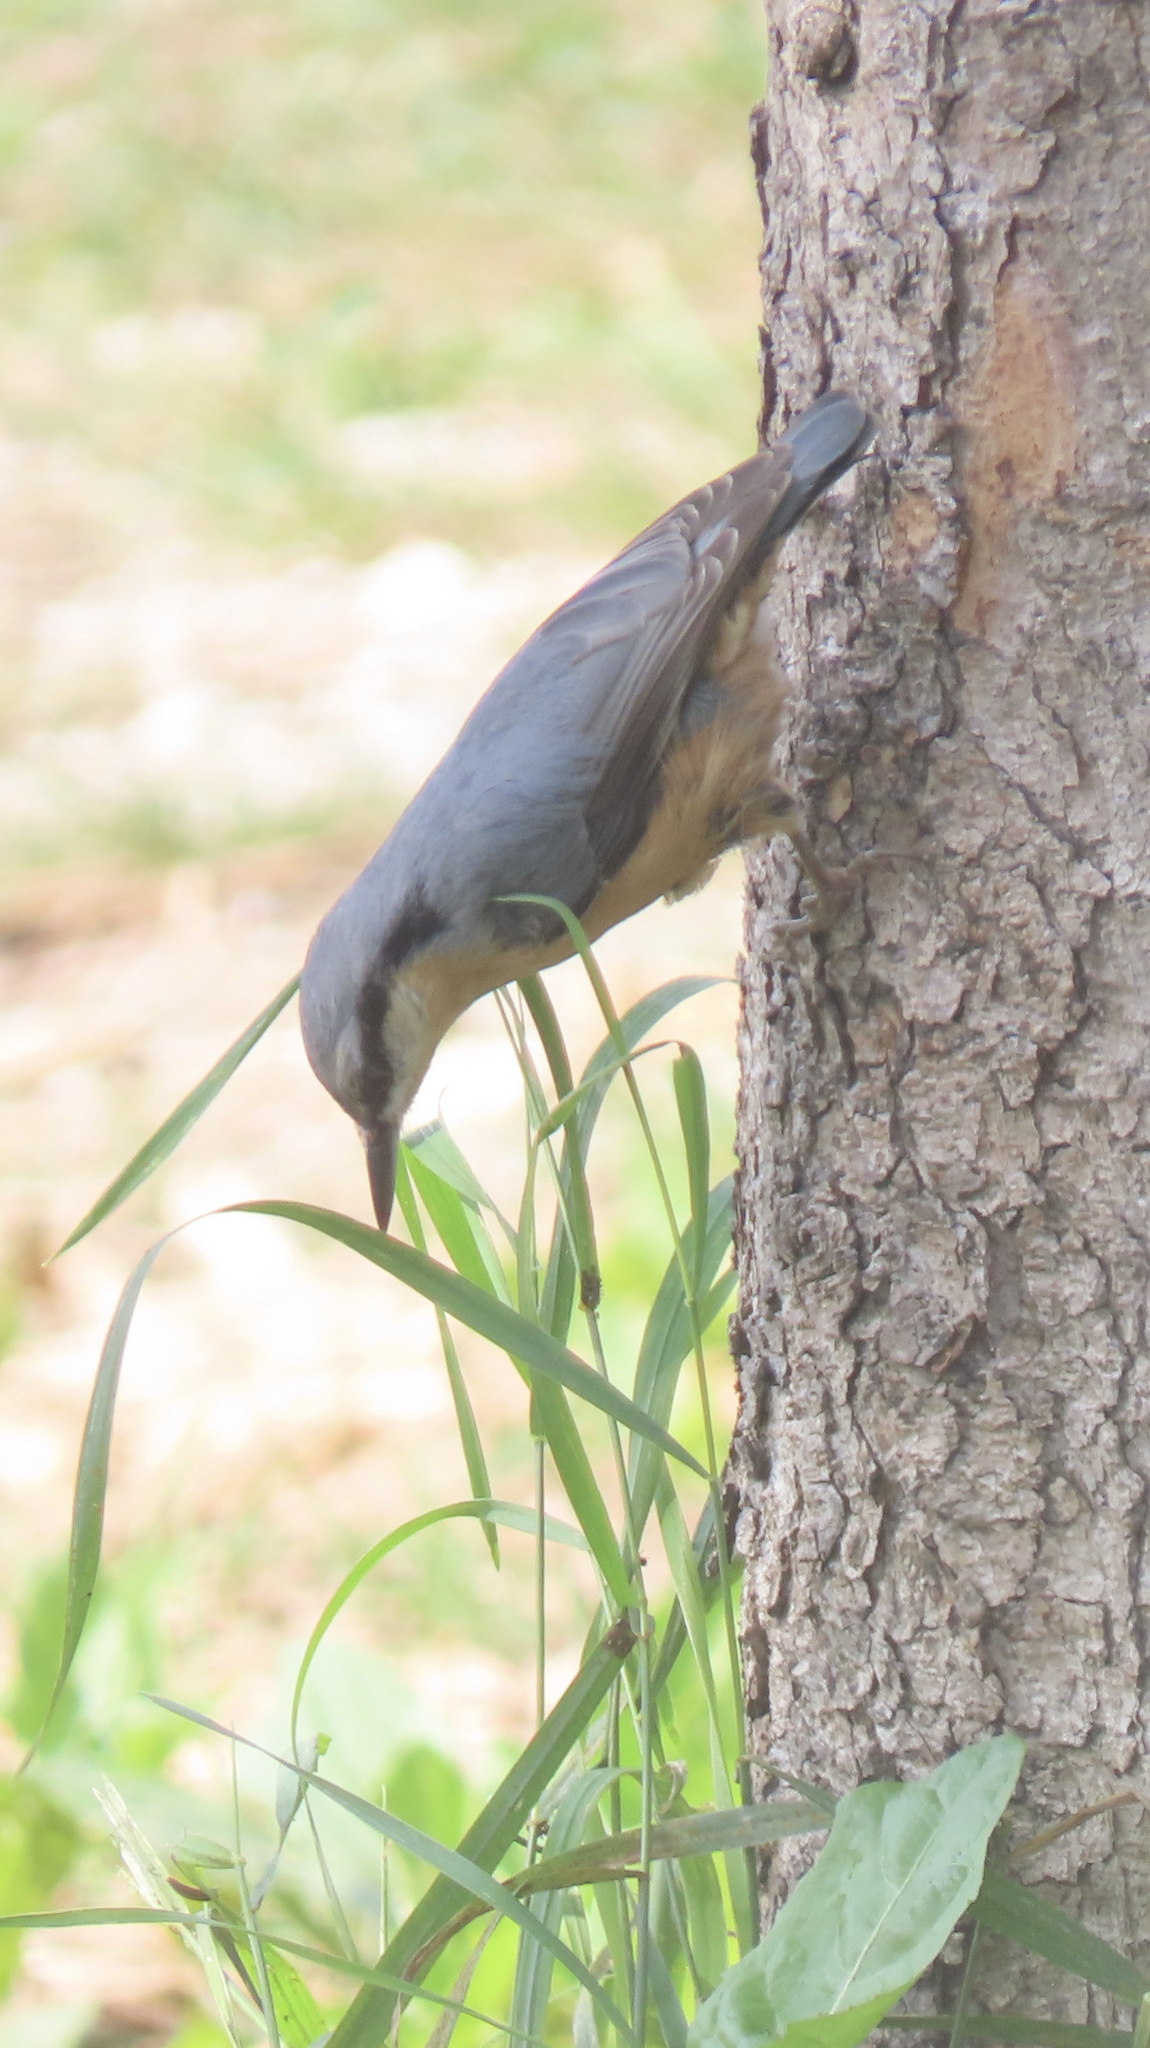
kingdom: Animalia
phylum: Chordata
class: Aves
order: Passeriformes
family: Sittidae
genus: Sitta
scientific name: Sitta europaea
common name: Eurasian nuthatch
